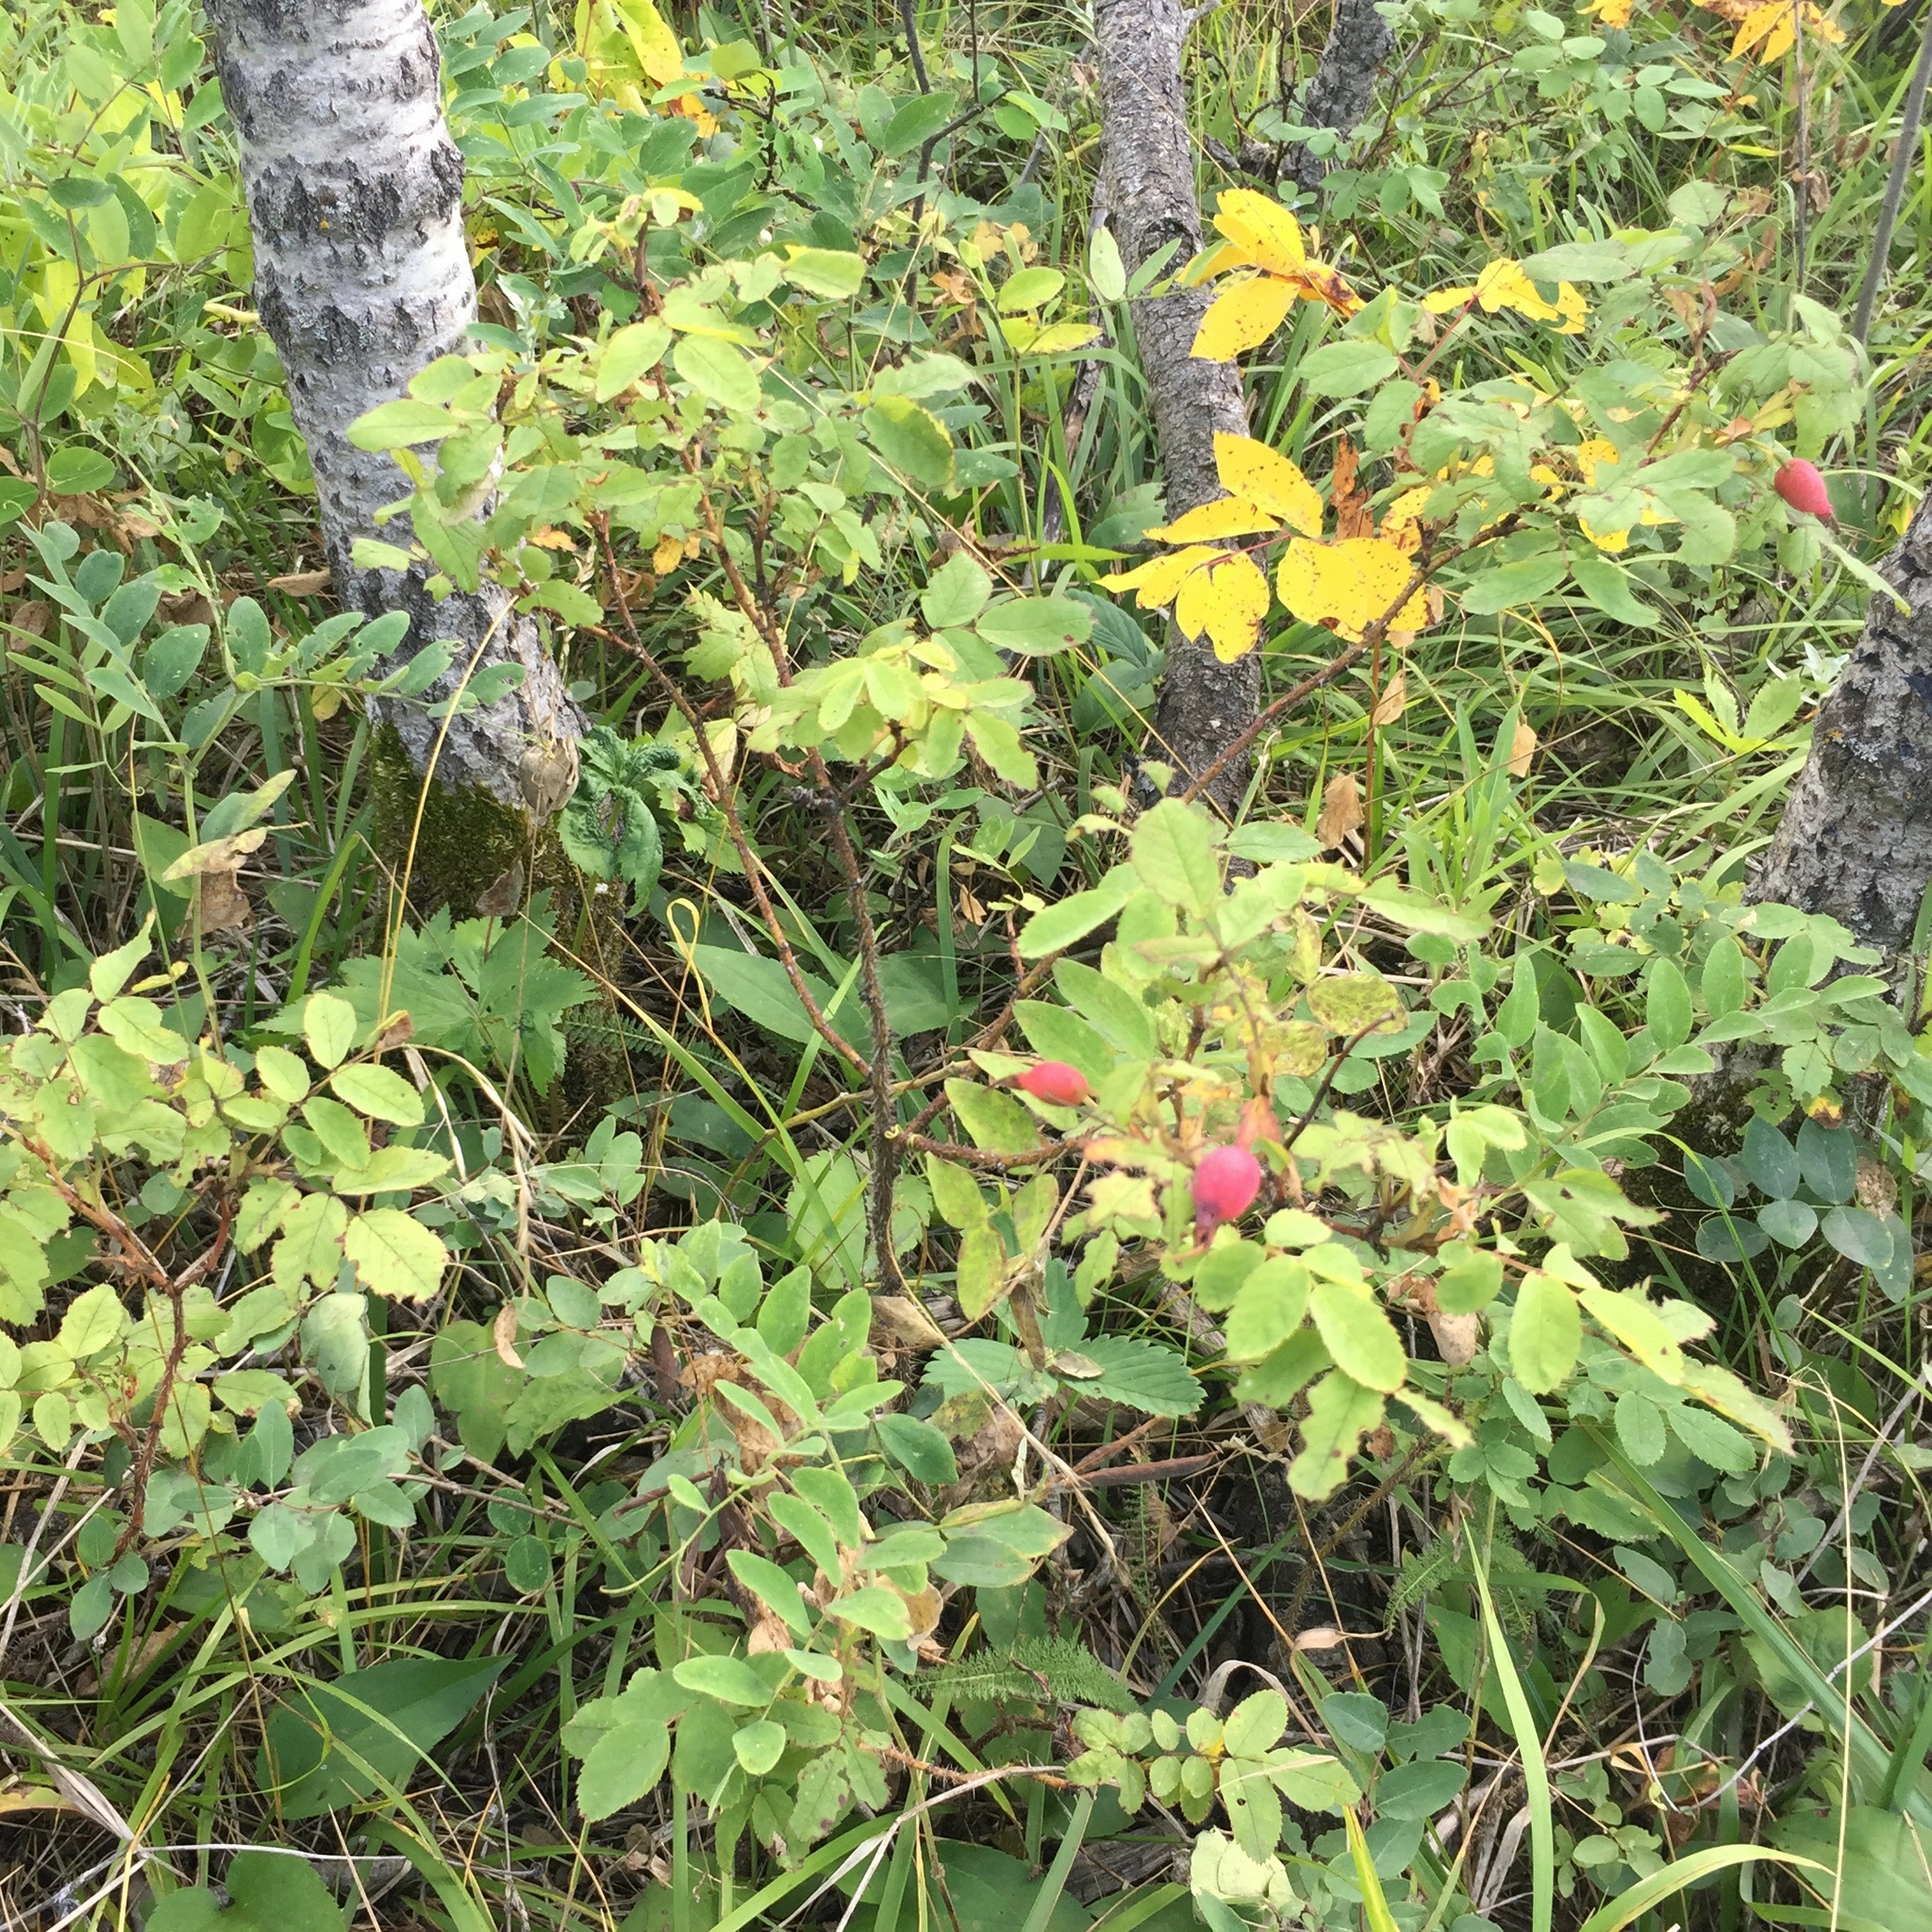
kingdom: Plantae
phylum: Tracheophyta
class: Magnoliopsida
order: Rosales
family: Rosaceae
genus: Rosa
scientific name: Rosa acicularis
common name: Prickly rose
